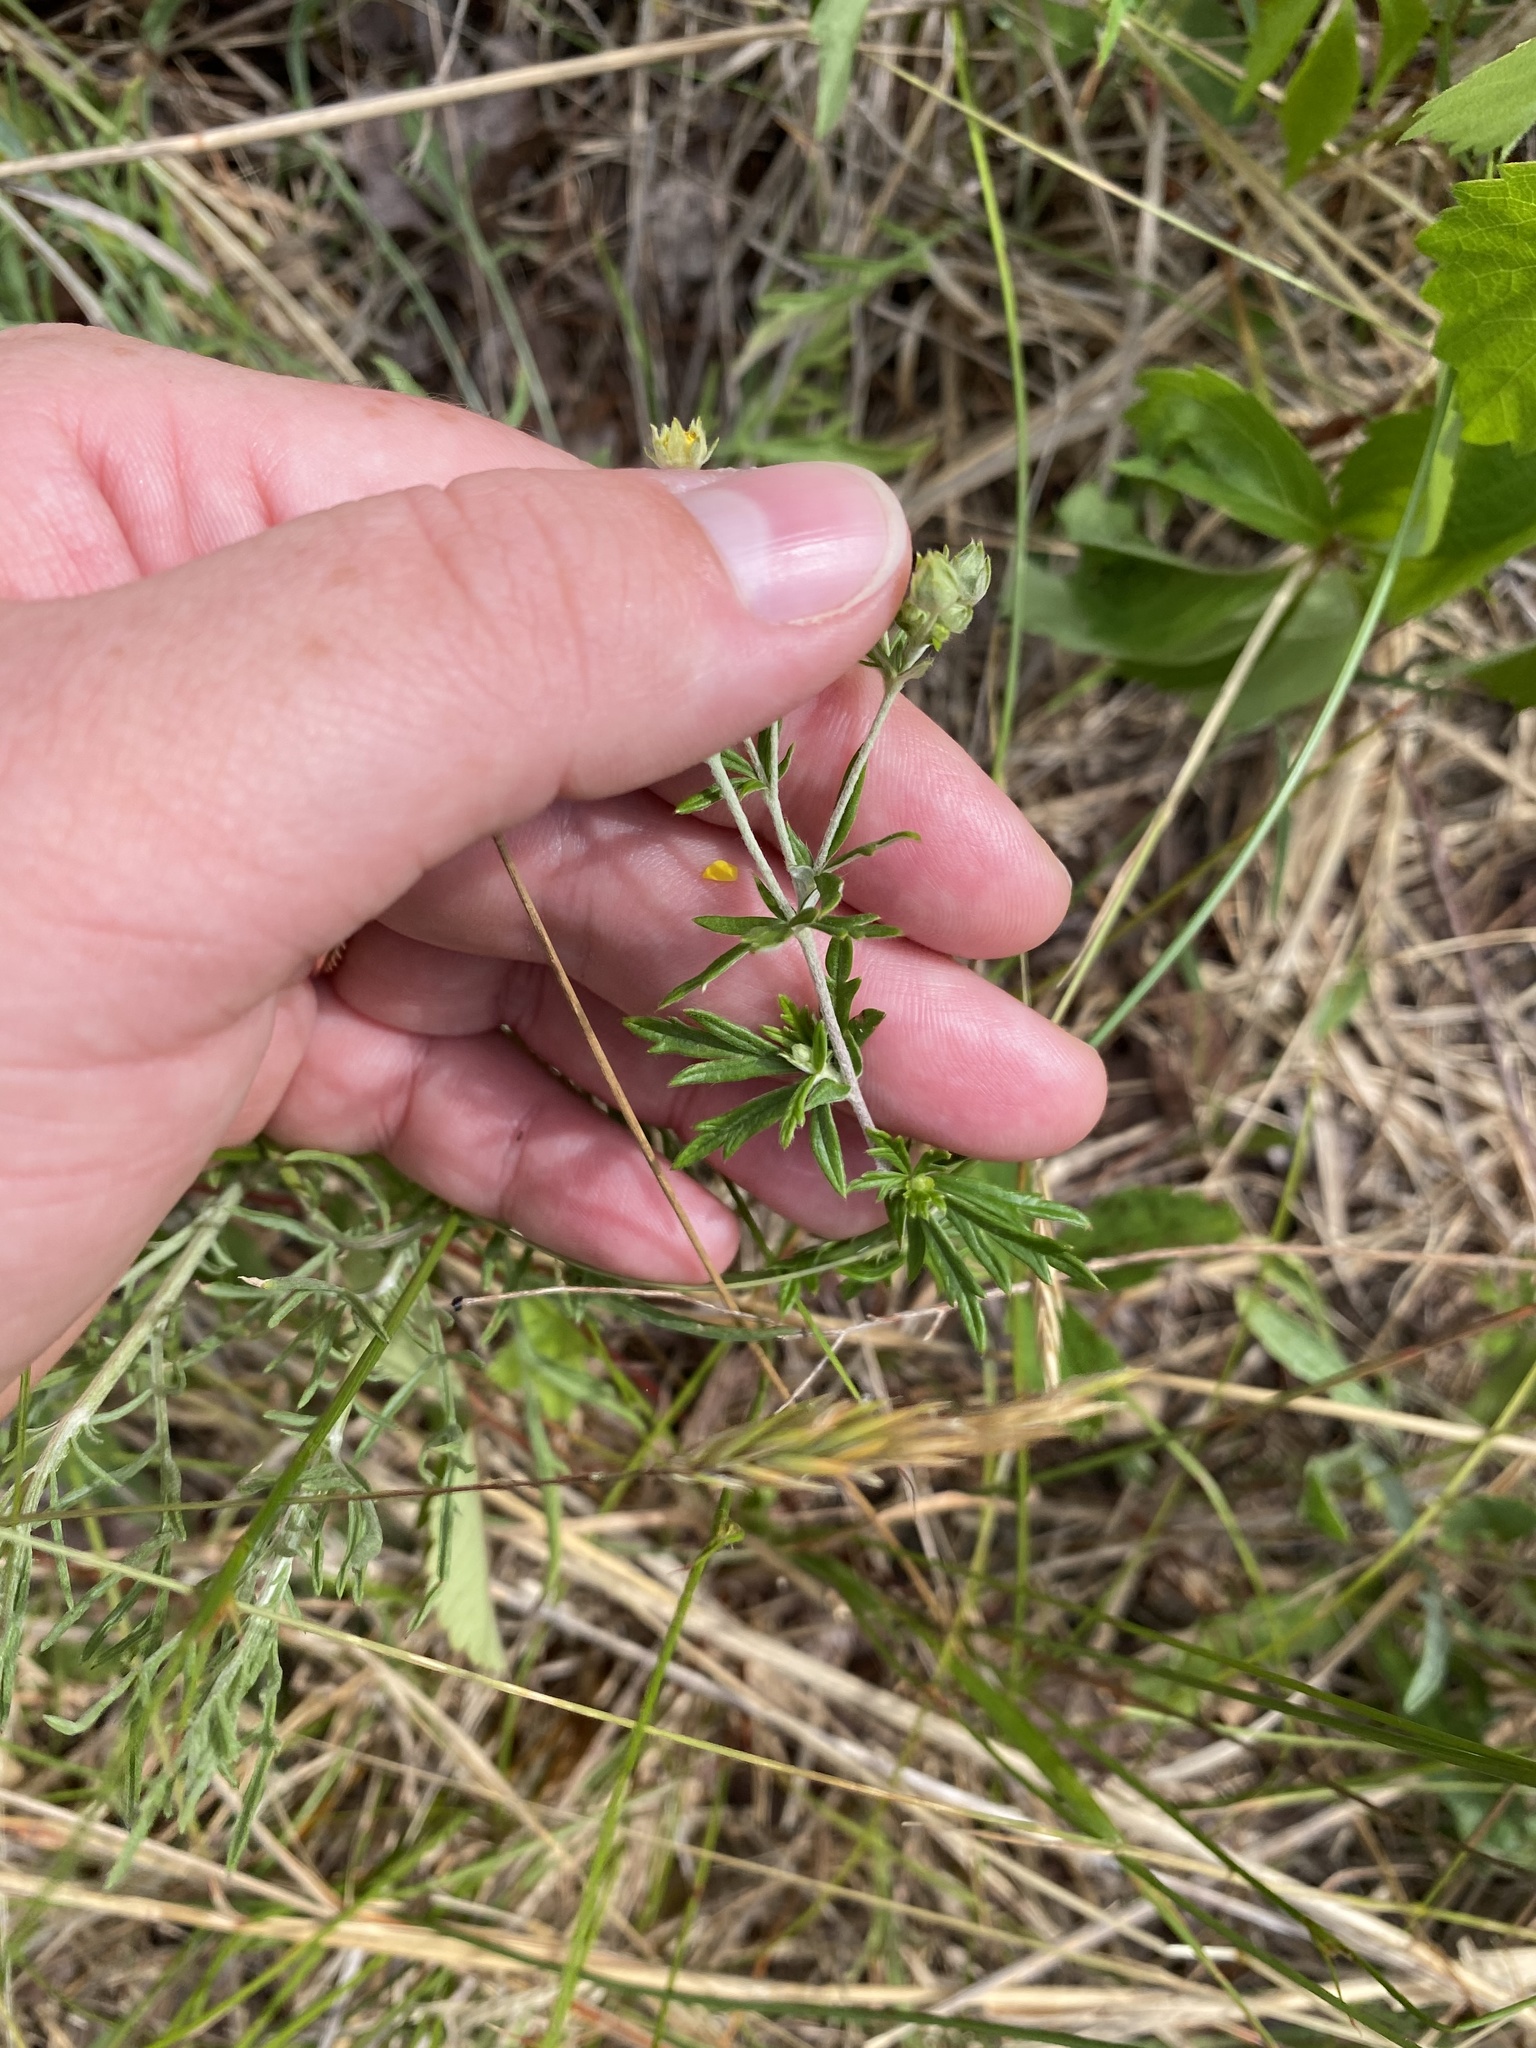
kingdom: Plantae
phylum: Tracheophyta
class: Magnoliopsida
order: Rosales
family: Rosaceae
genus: Potentilla
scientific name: Potentilla argentea
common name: Hoary cinquefoil
